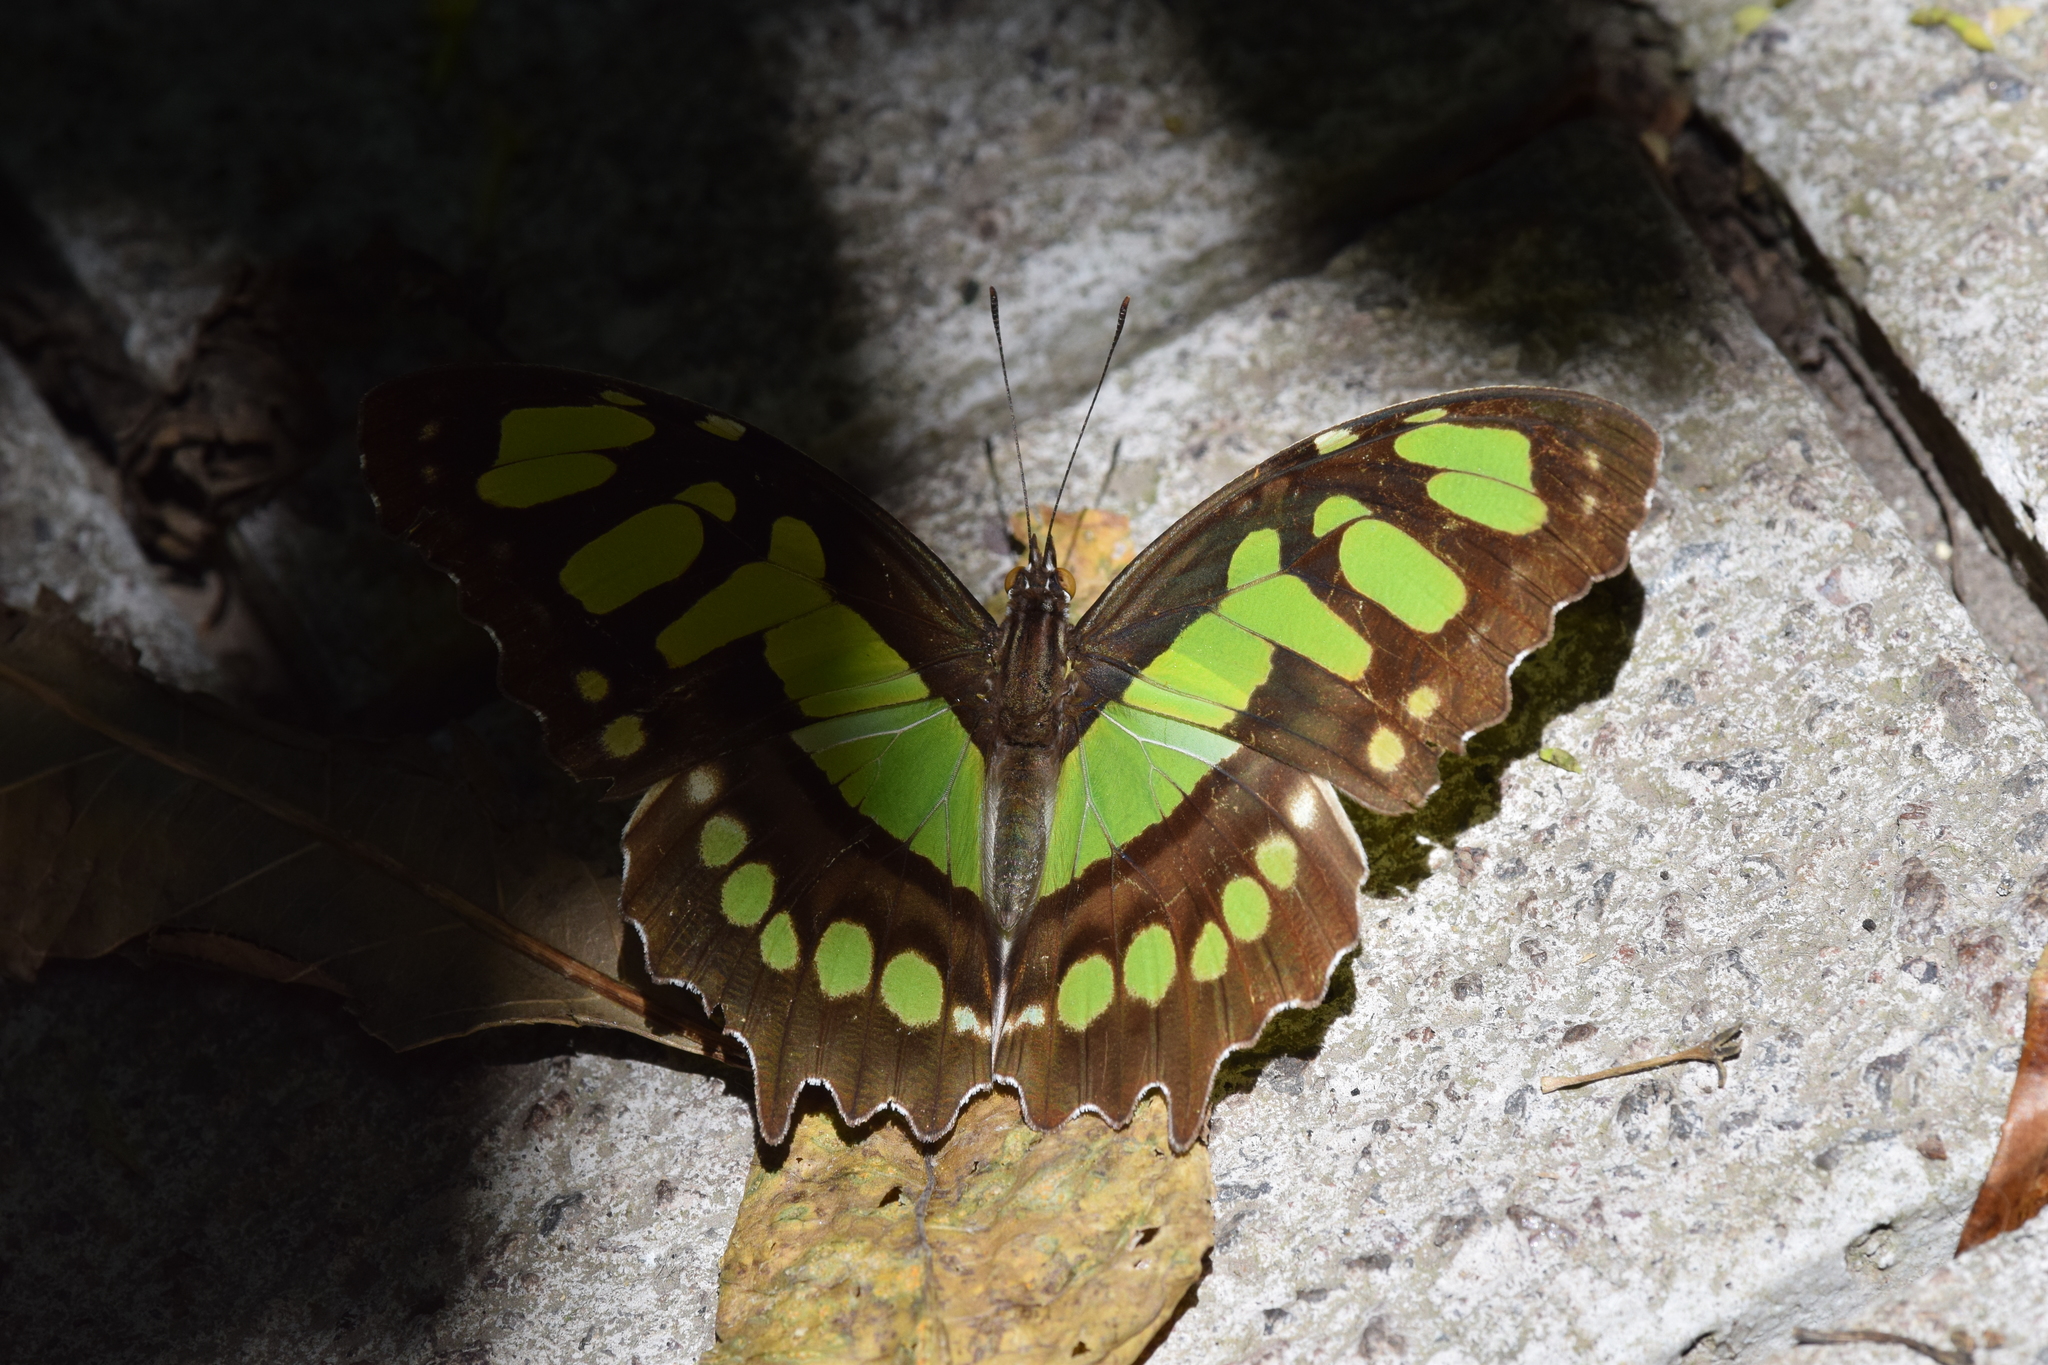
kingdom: Animalia
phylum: Arthropoda
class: Insecta
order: Lepidoptera
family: Nymphalidae
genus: Siproeta
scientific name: Siproeta stelenes
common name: Malachite
